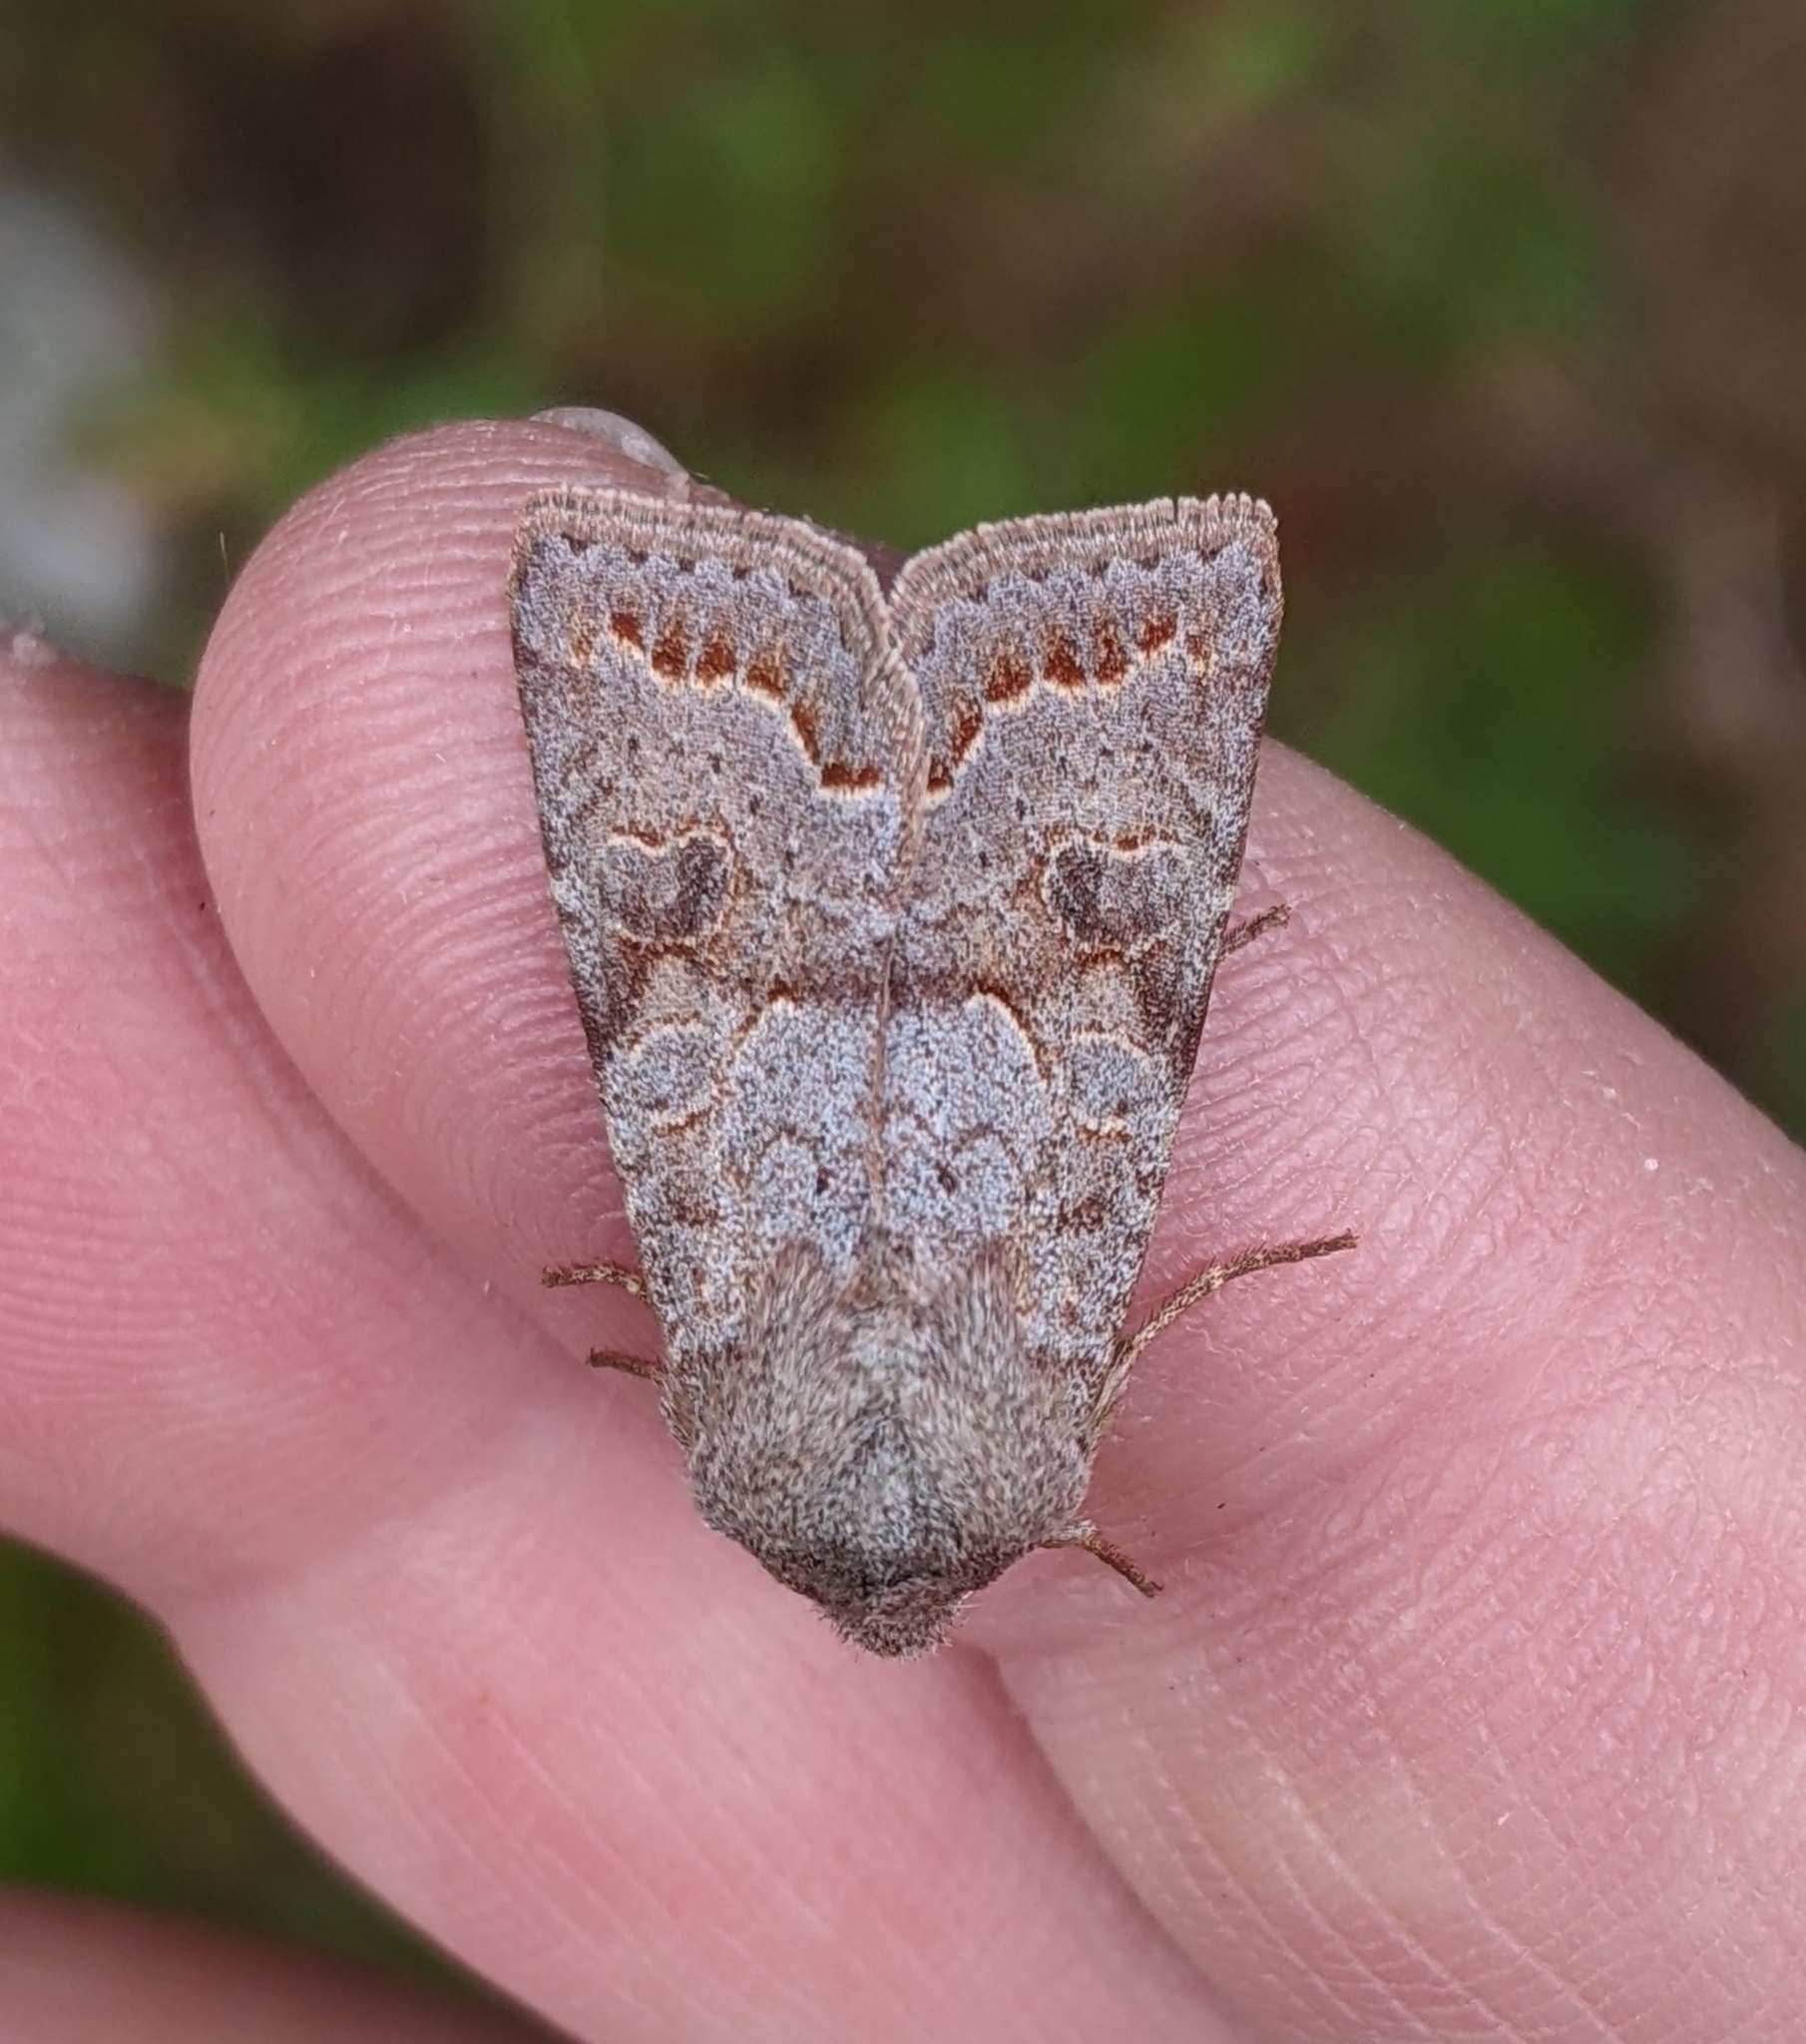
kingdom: Animalia
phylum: Arthropoda
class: Insecta
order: Lepidoptera
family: Noctuidae
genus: Orthosia
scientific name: Orthosia revicta
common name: Rusty whitesided caterpillar
